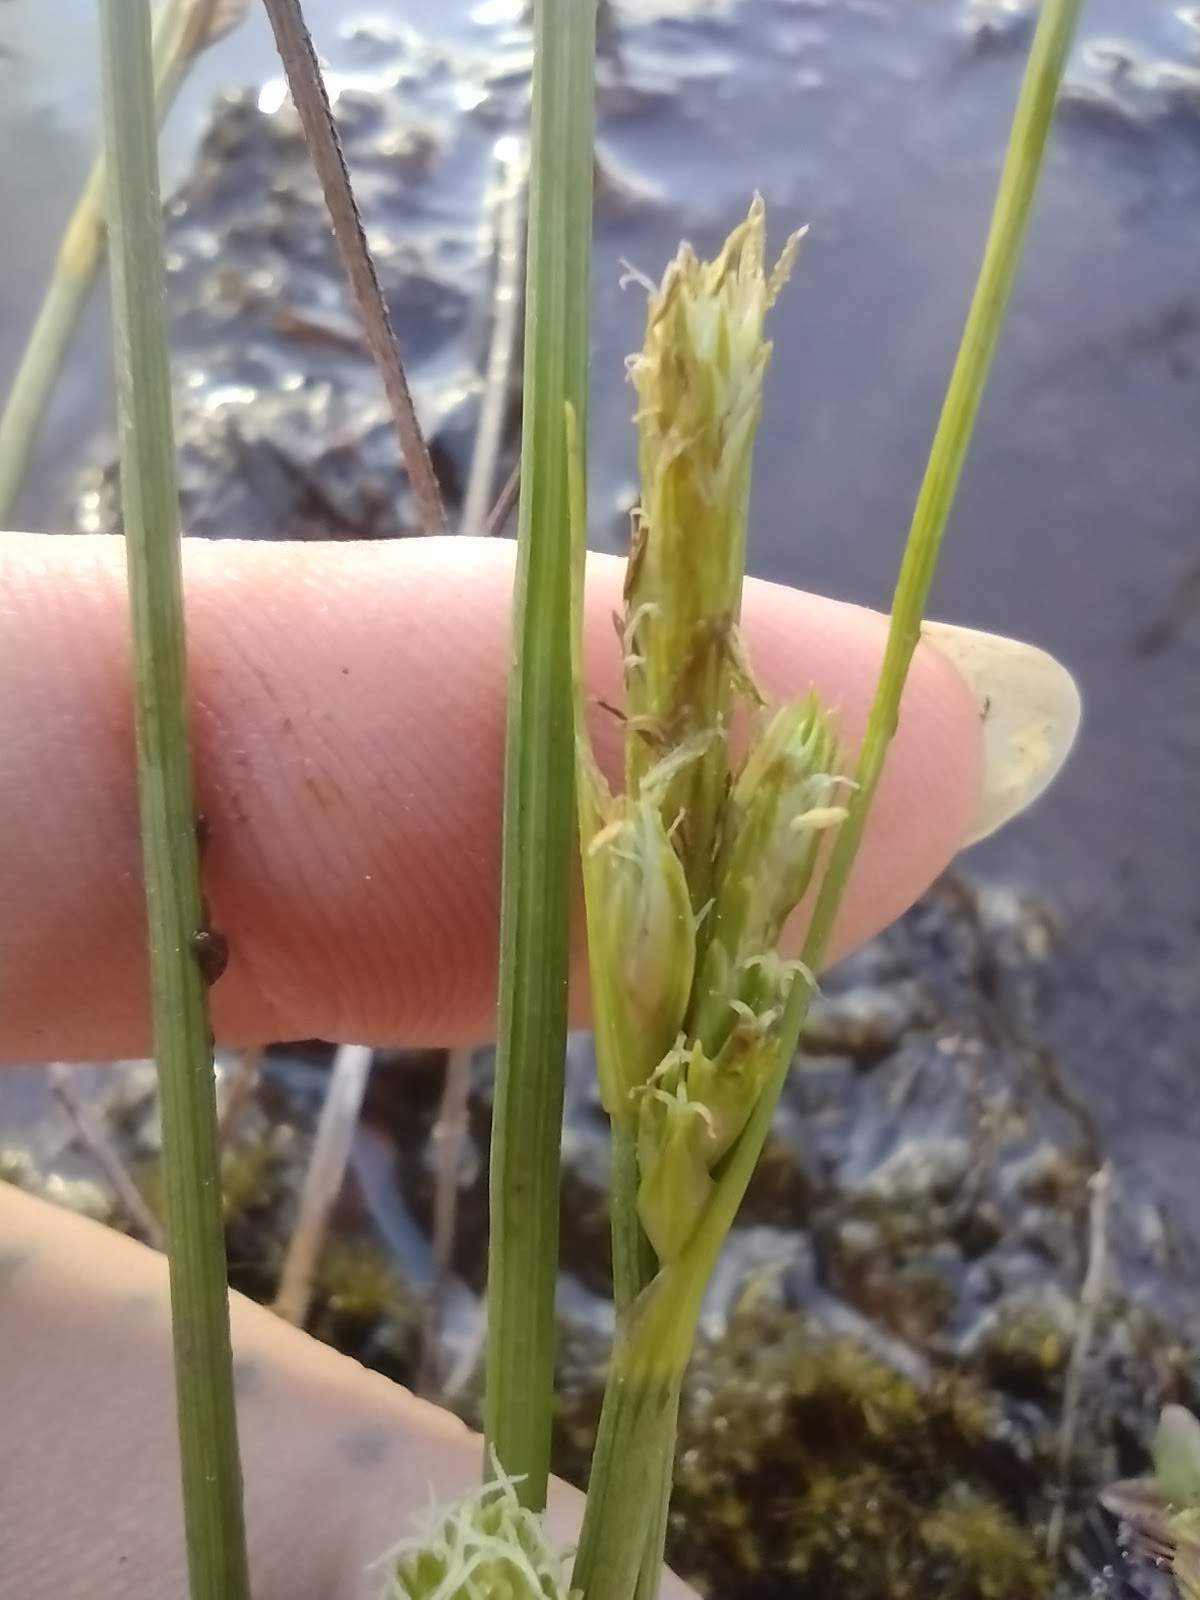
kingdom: Plantae
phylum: Tracheophyta
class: Liliopsida
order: Poales
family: Cyperaceae
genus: Carex
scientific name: Carex montis-eeka
